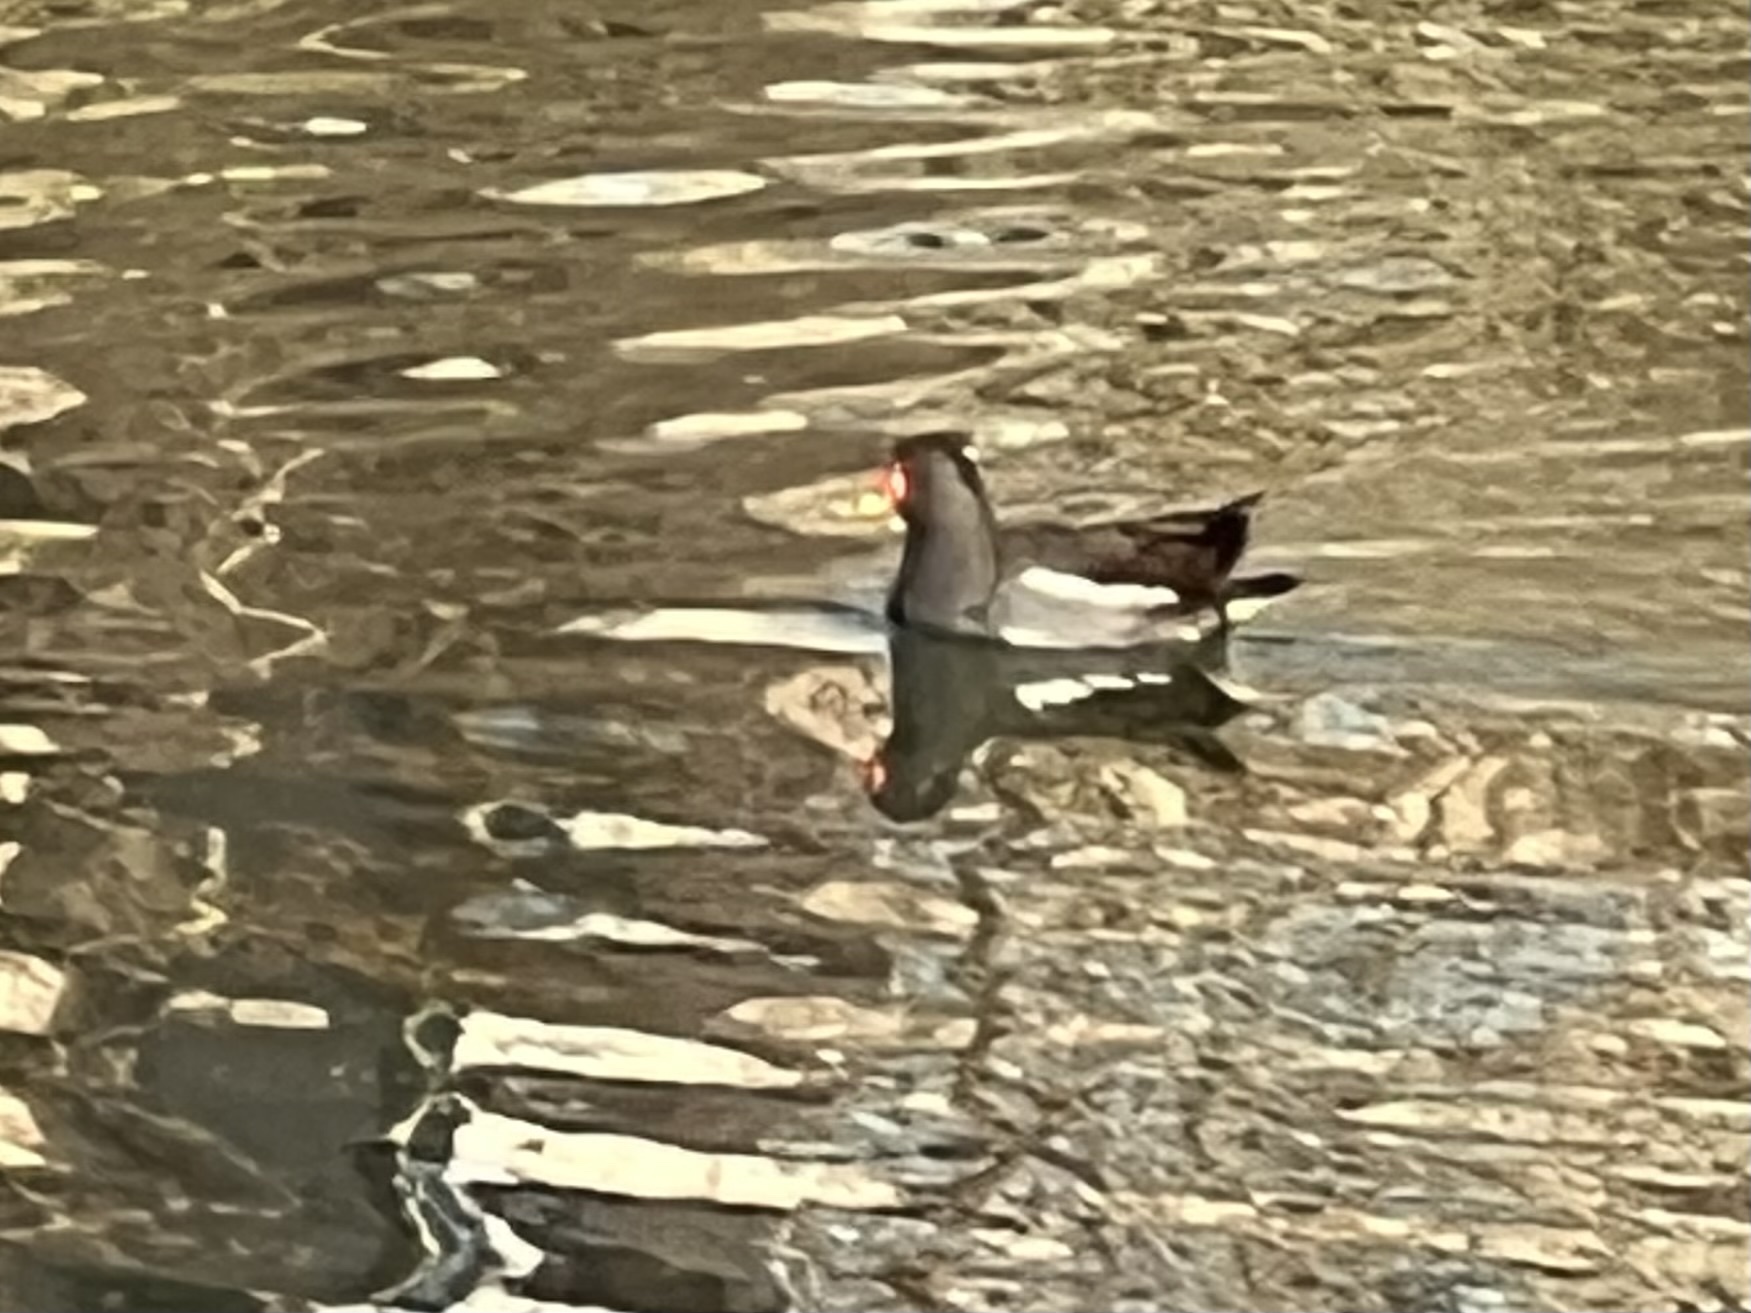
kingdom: Animalia
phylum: Chordata
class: Aves
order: Gruiformes
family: Rallidae
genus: Gallinula
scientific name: Gallinula chloropus
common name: Common moorhen
